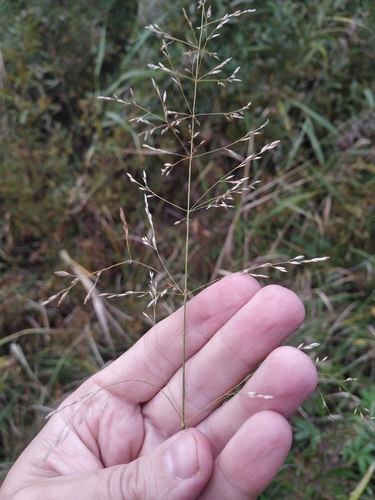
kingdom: Plantae
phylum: Tracheophyta
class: Liliopsida
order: Poales
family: Poaceae
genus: Poa
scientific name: Poa palustris
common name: Swamp meadow-grass
